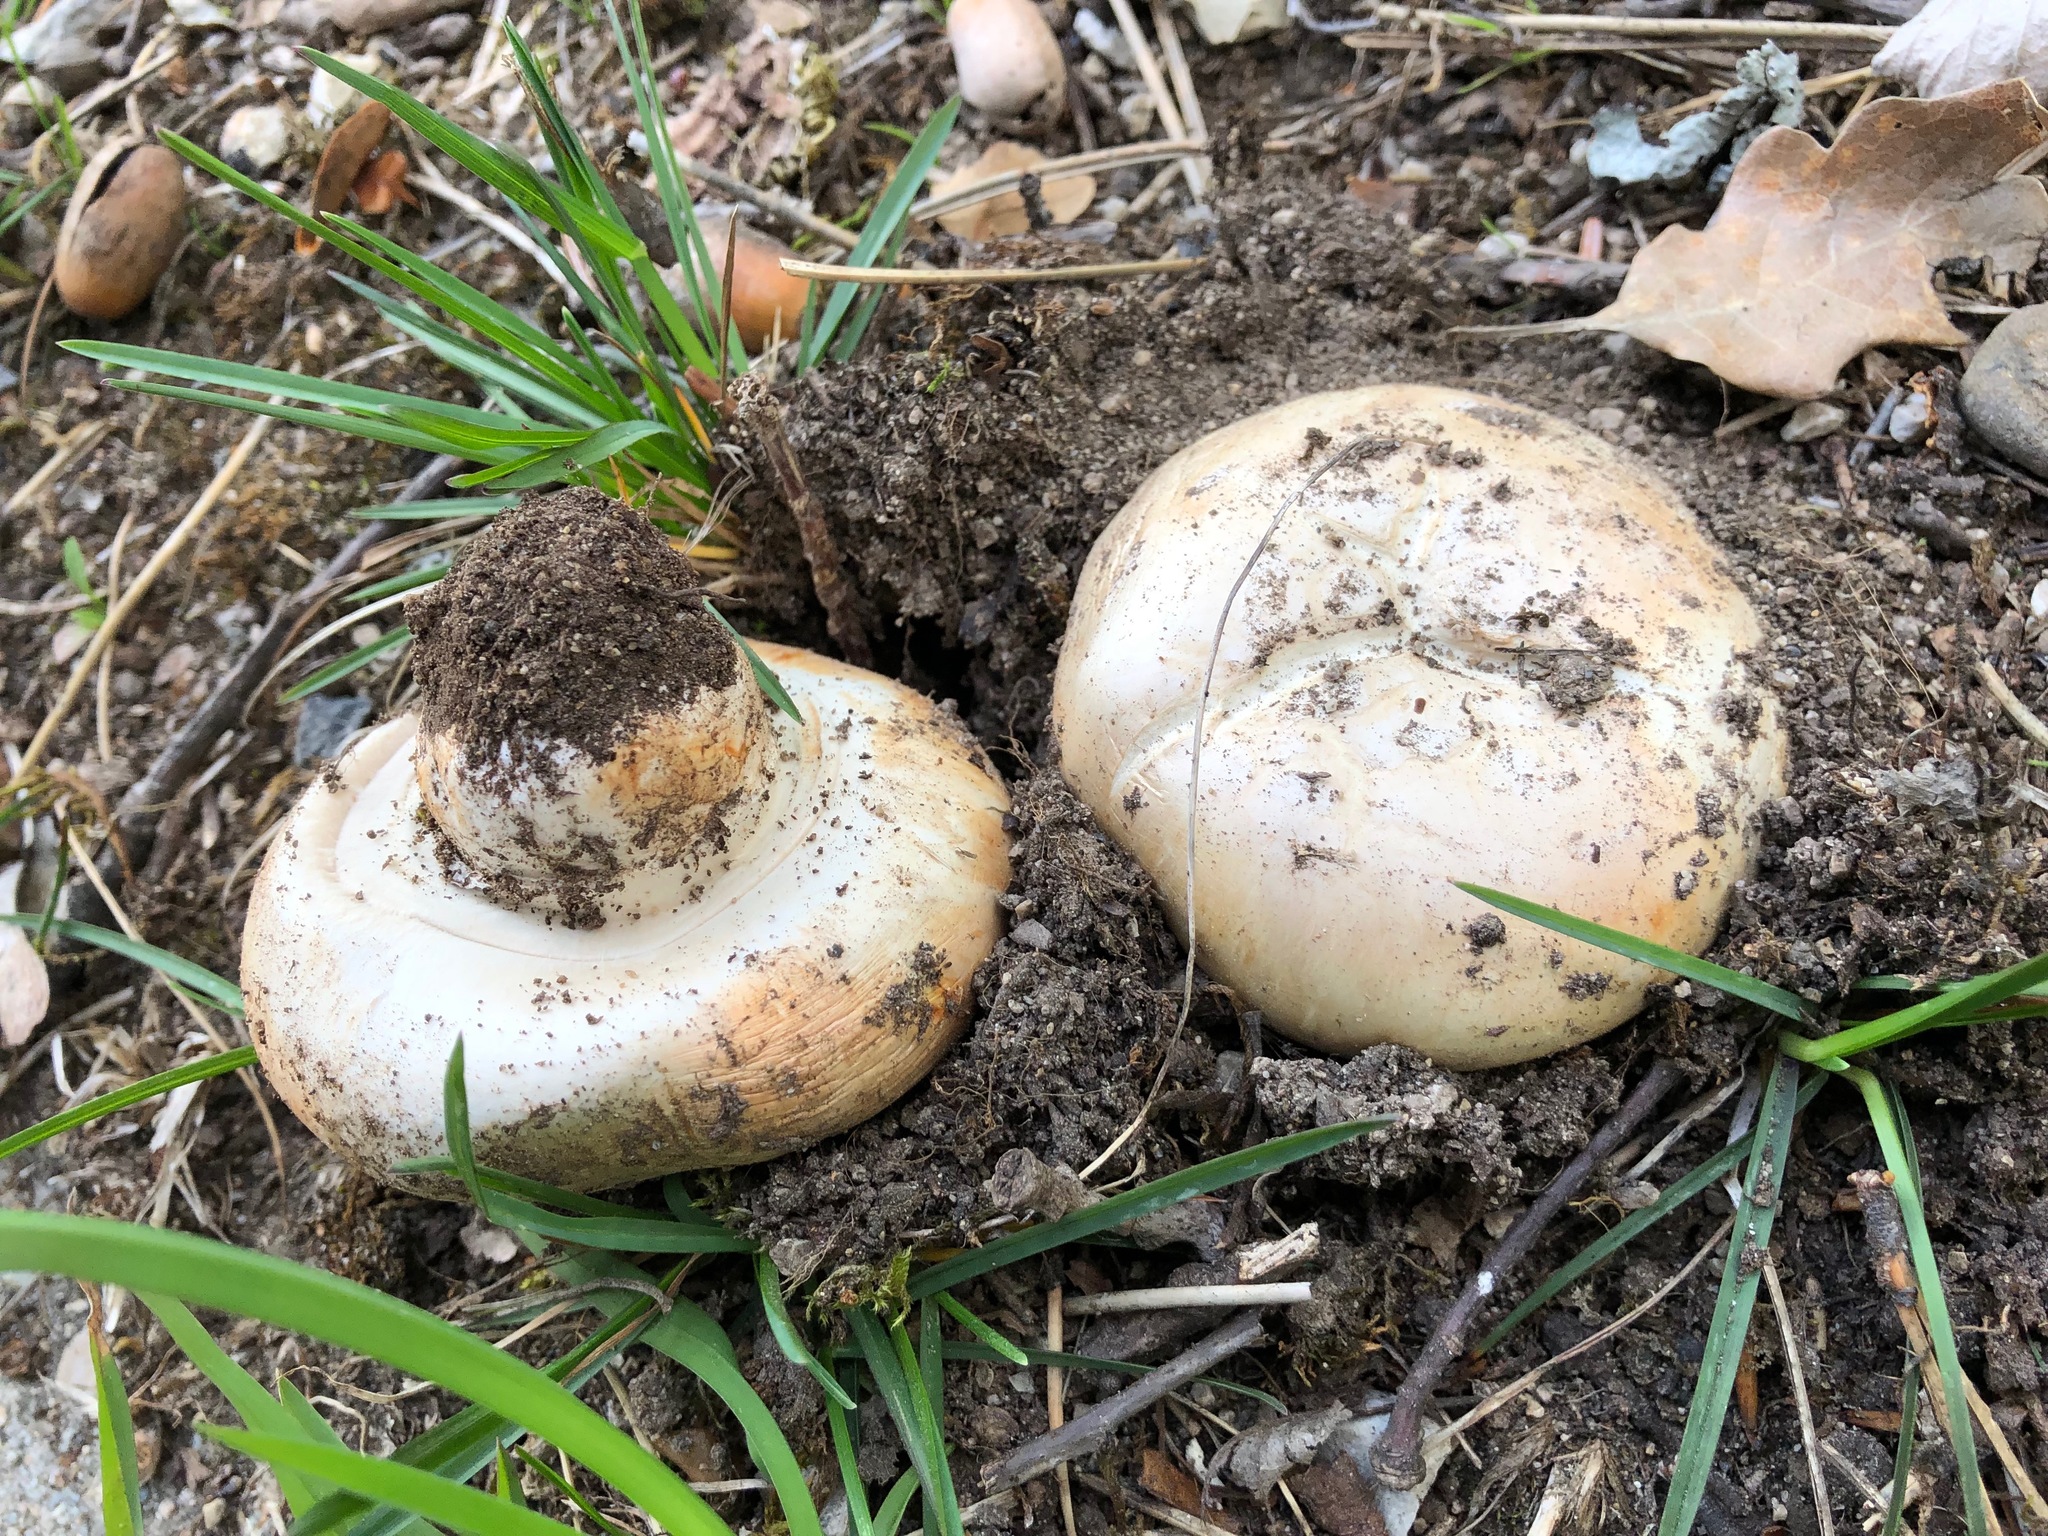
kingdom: Fungi
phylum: Basidiomycota
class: Agaricomycetes
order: Agaricales
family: Agaricaceae
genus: Agaricus
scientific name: Agaricus bitorquis
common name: Pavement mushroom
